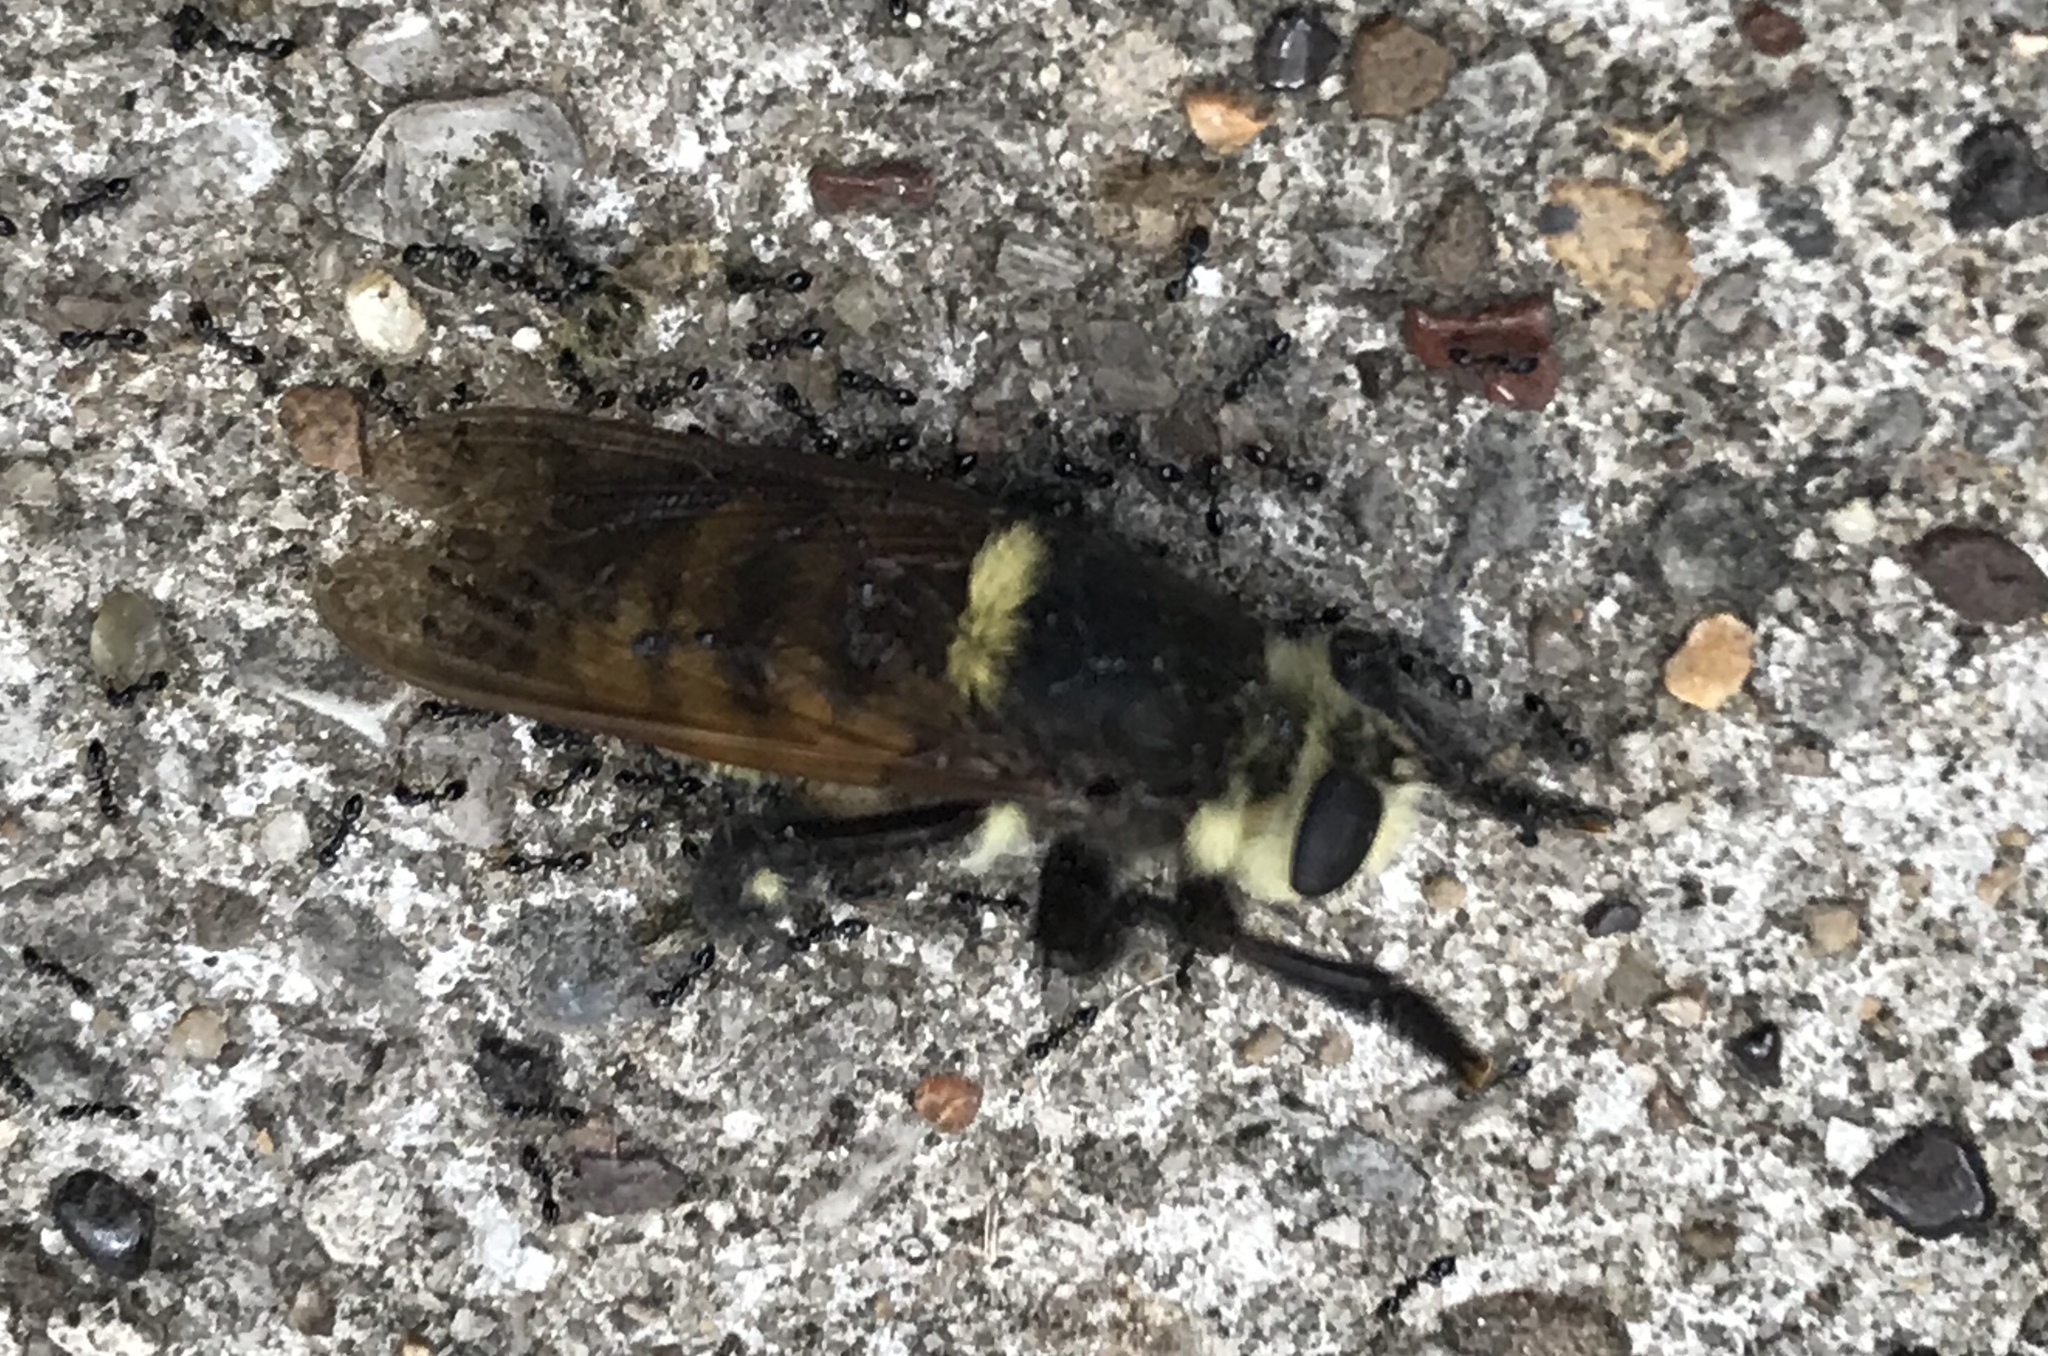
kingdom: Animalia
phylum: Arthropoda
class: Insecta
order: Diptera
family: Asilidae
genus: Mallophora
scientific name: Mallophora fautrix
